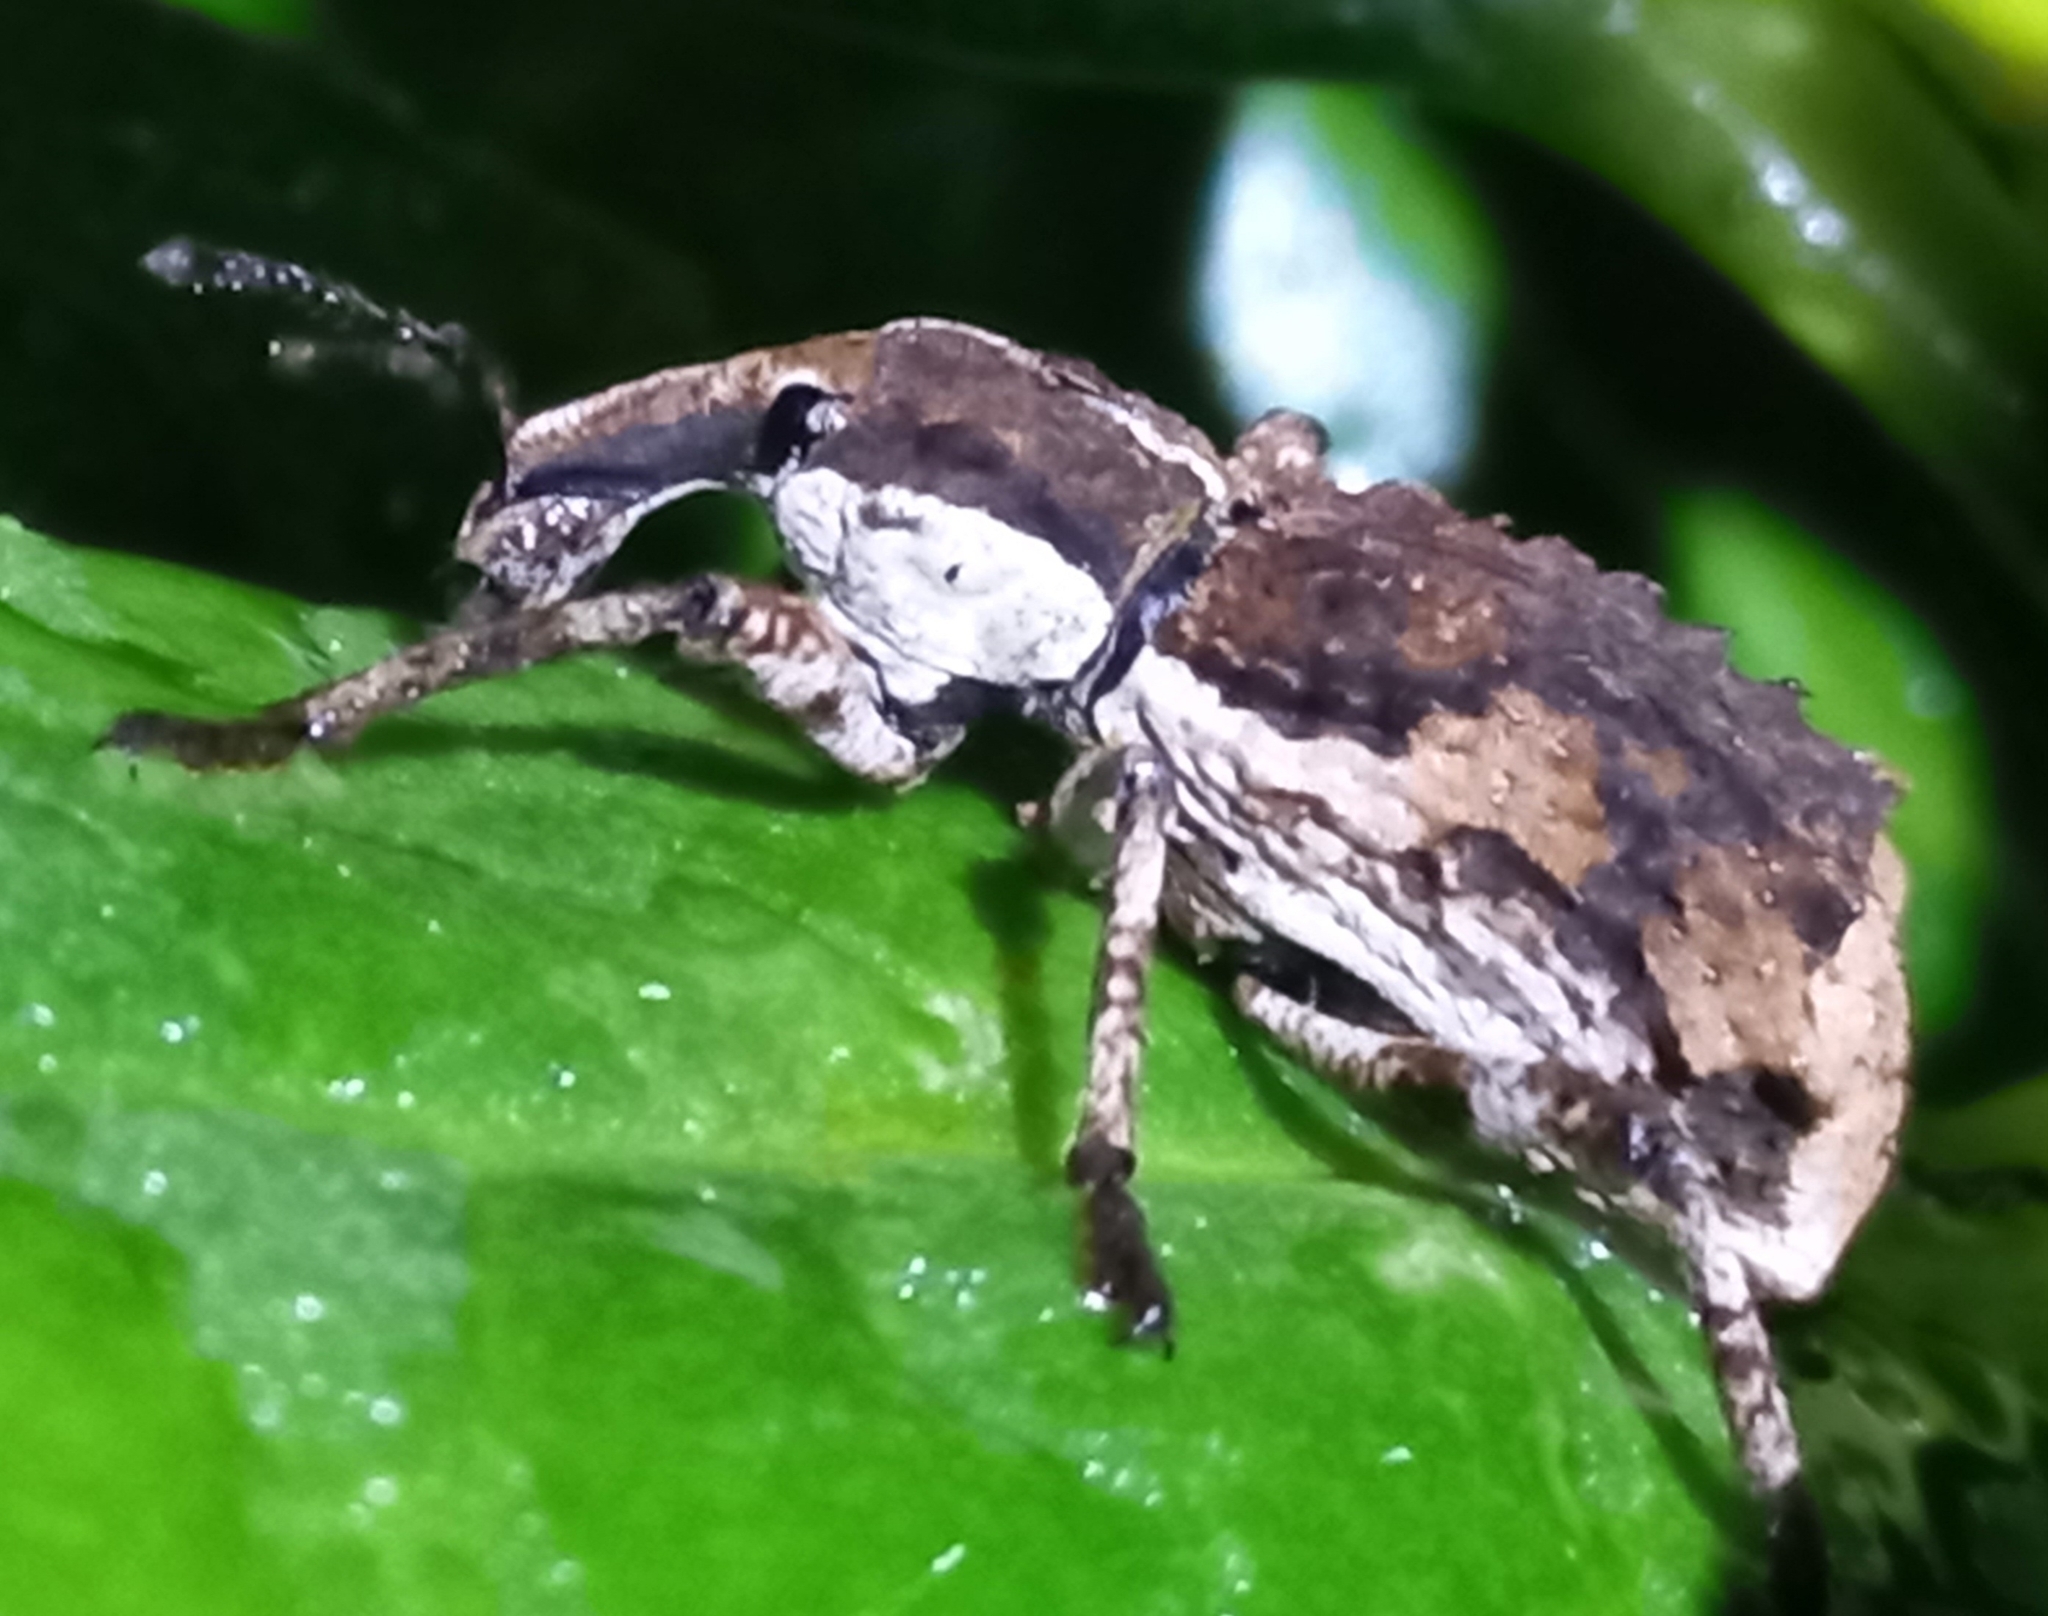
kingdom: Animalia
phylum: Arthropoda
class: Insecta
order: Coleoptera
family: Curculionidae
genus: Anagotus
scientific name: Anagotus stephenensis
